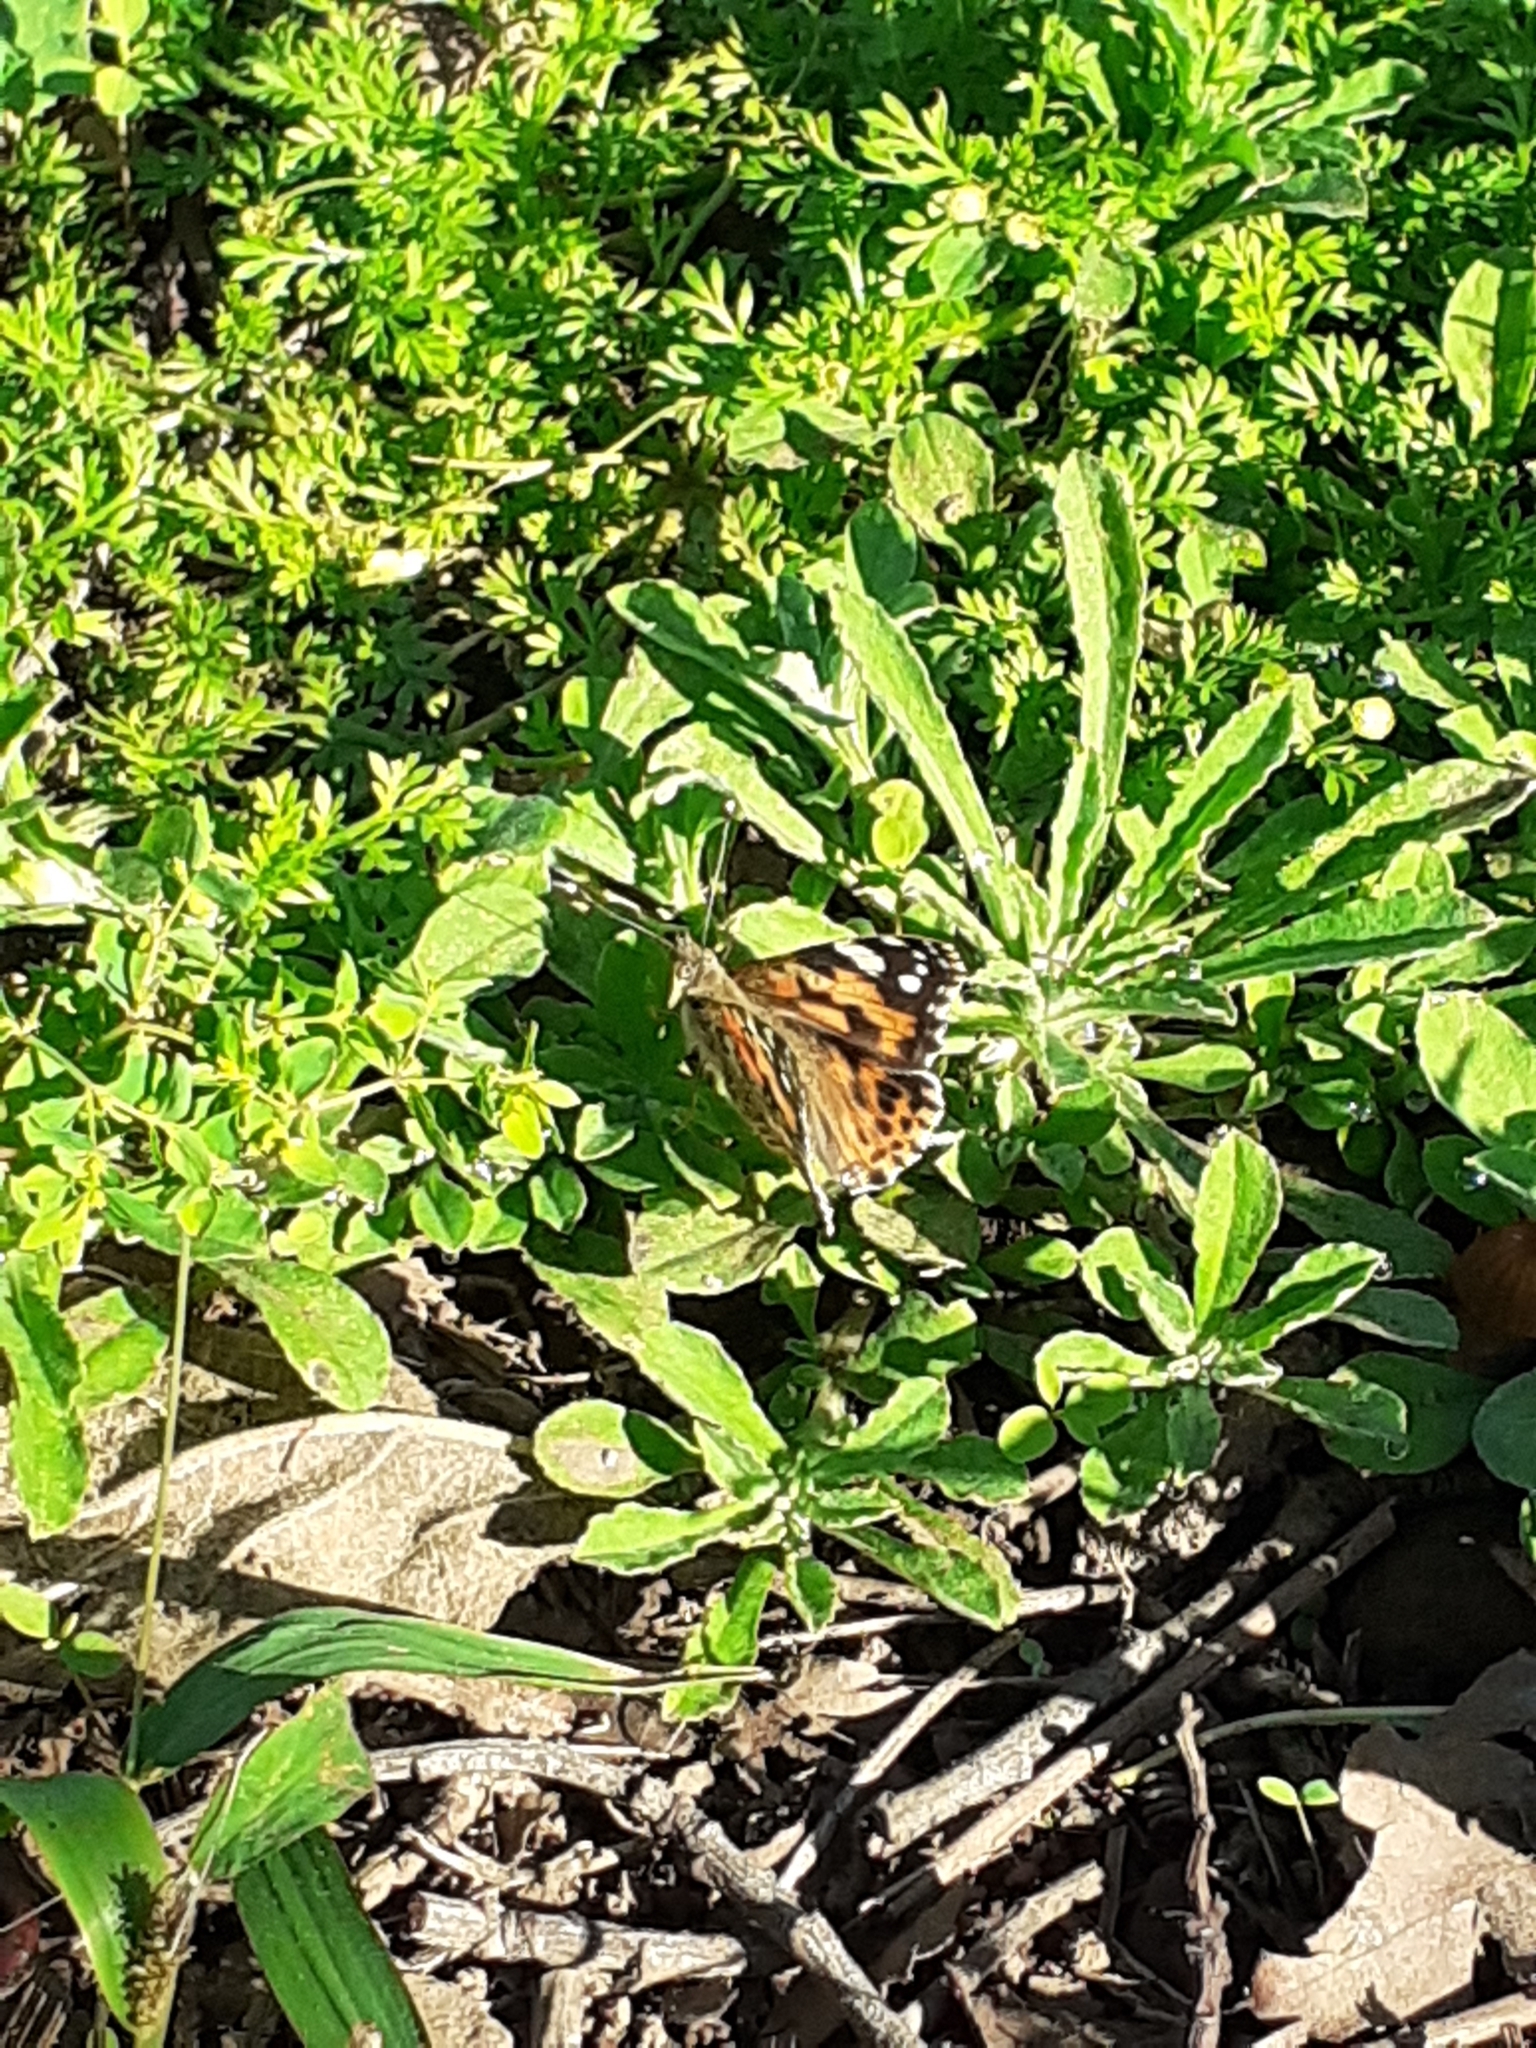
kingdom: Animalia
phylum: Arthropoda
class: Insecta
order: Lepidoptera
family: Nymphalidae
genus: Vanessa
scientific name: Vanessa cardui
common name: Painted lady
